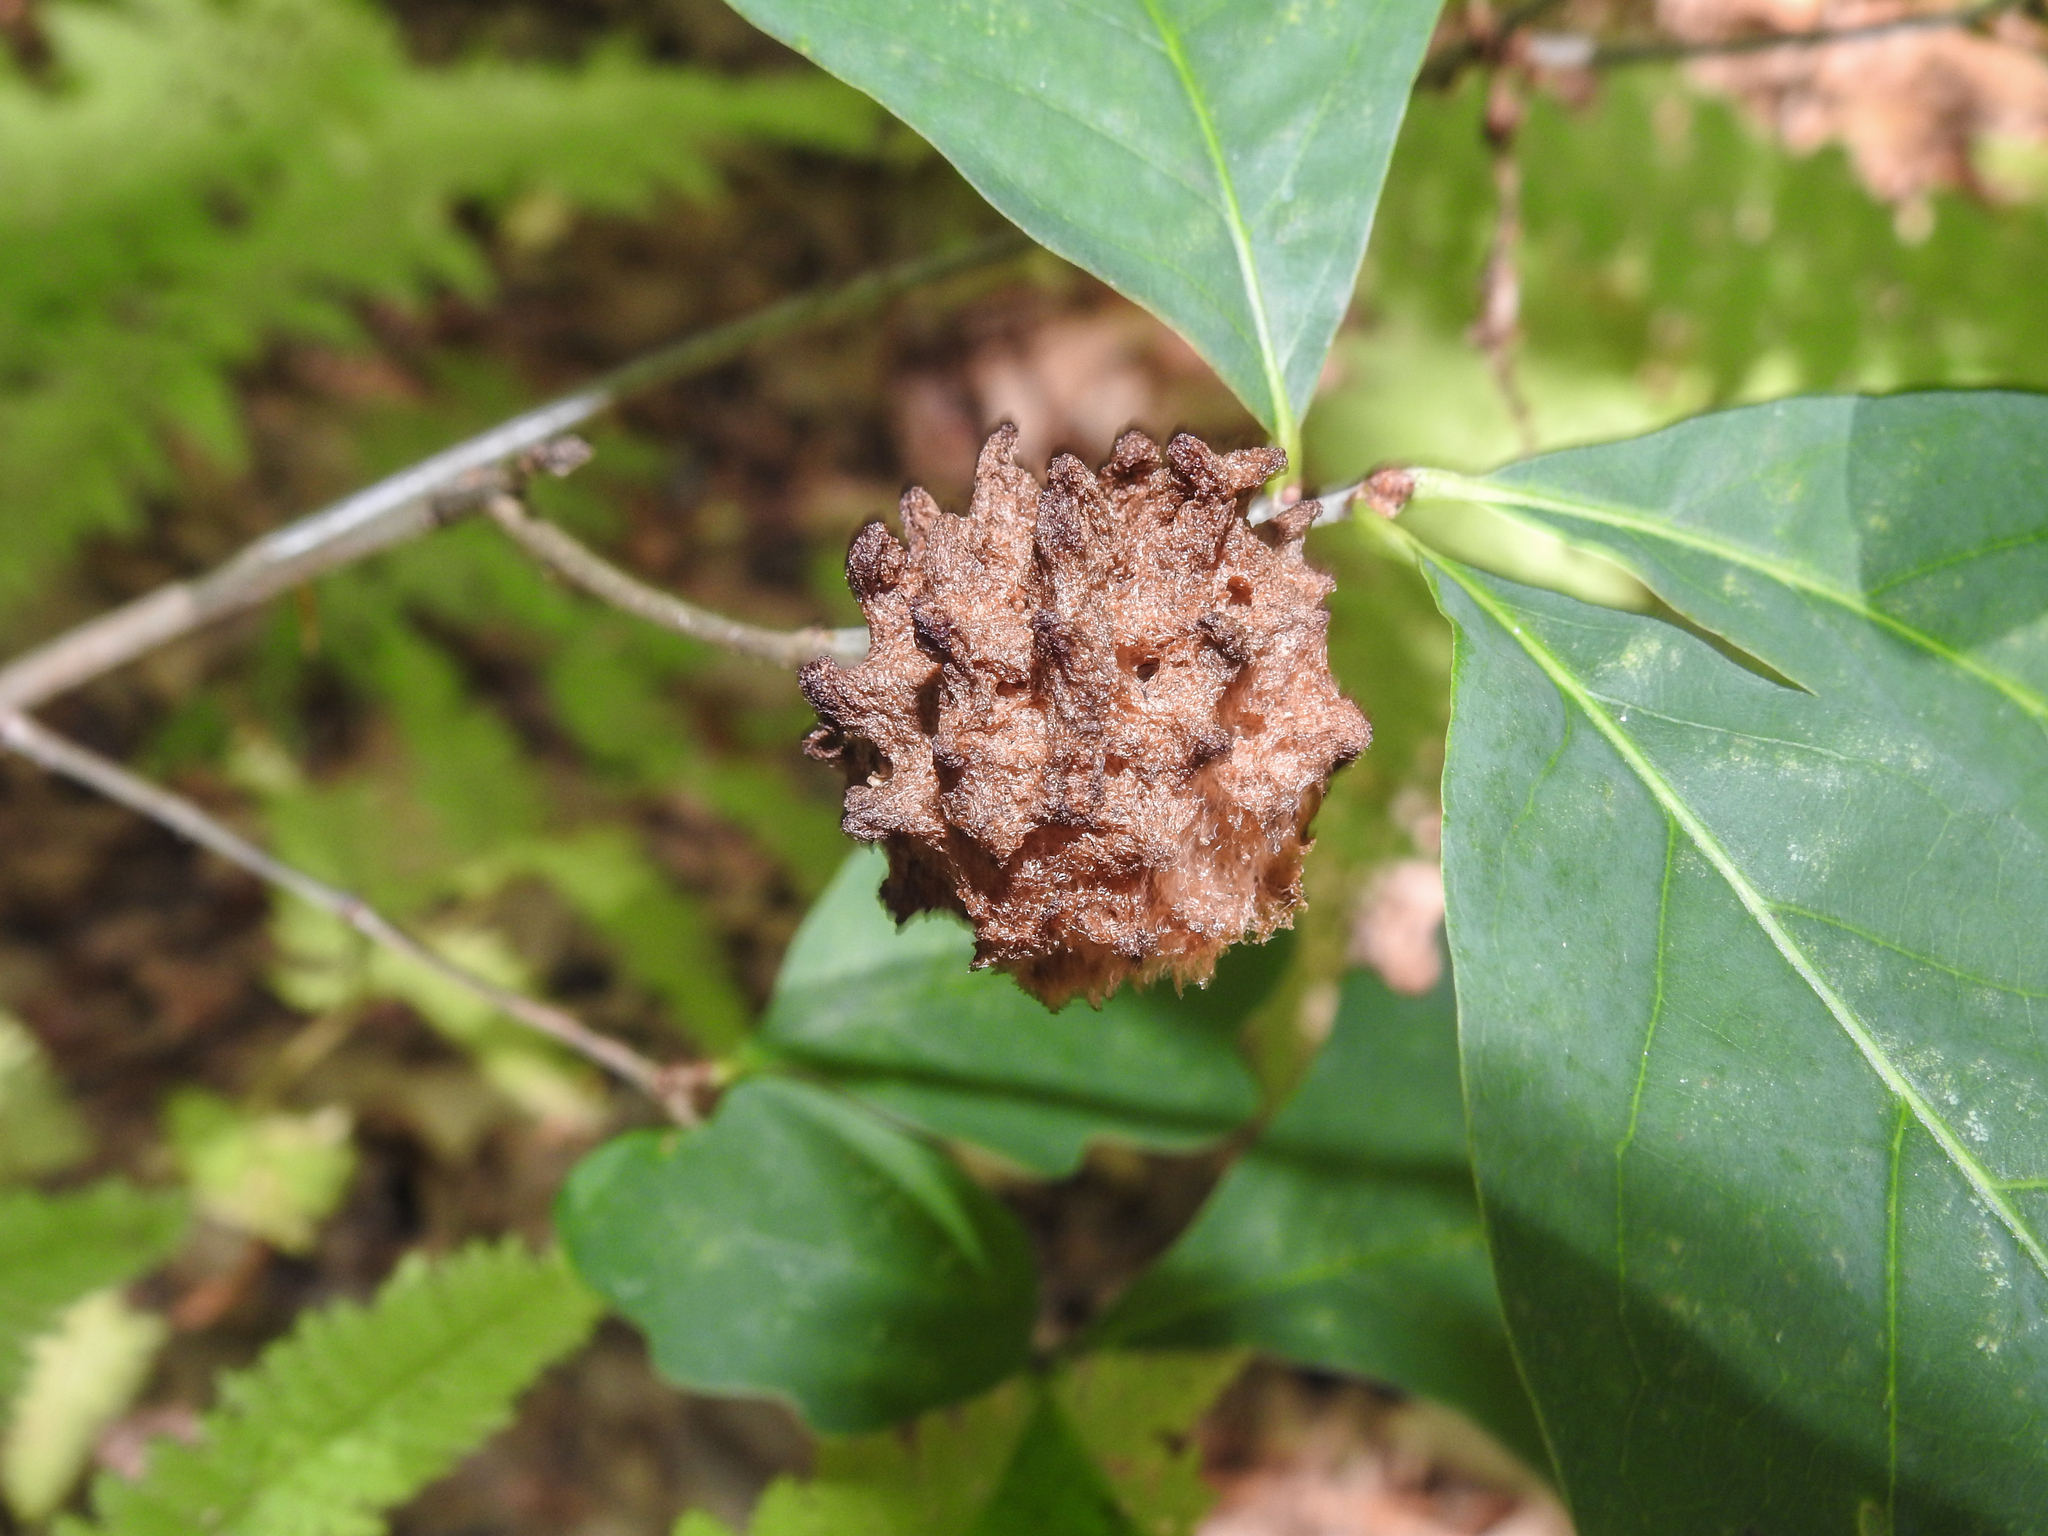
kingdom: Animalia
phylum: Arthropoda
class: Insecta
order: Hymenoptera
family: Cynipidae
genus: Callirhytis
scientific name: Callirhytis
